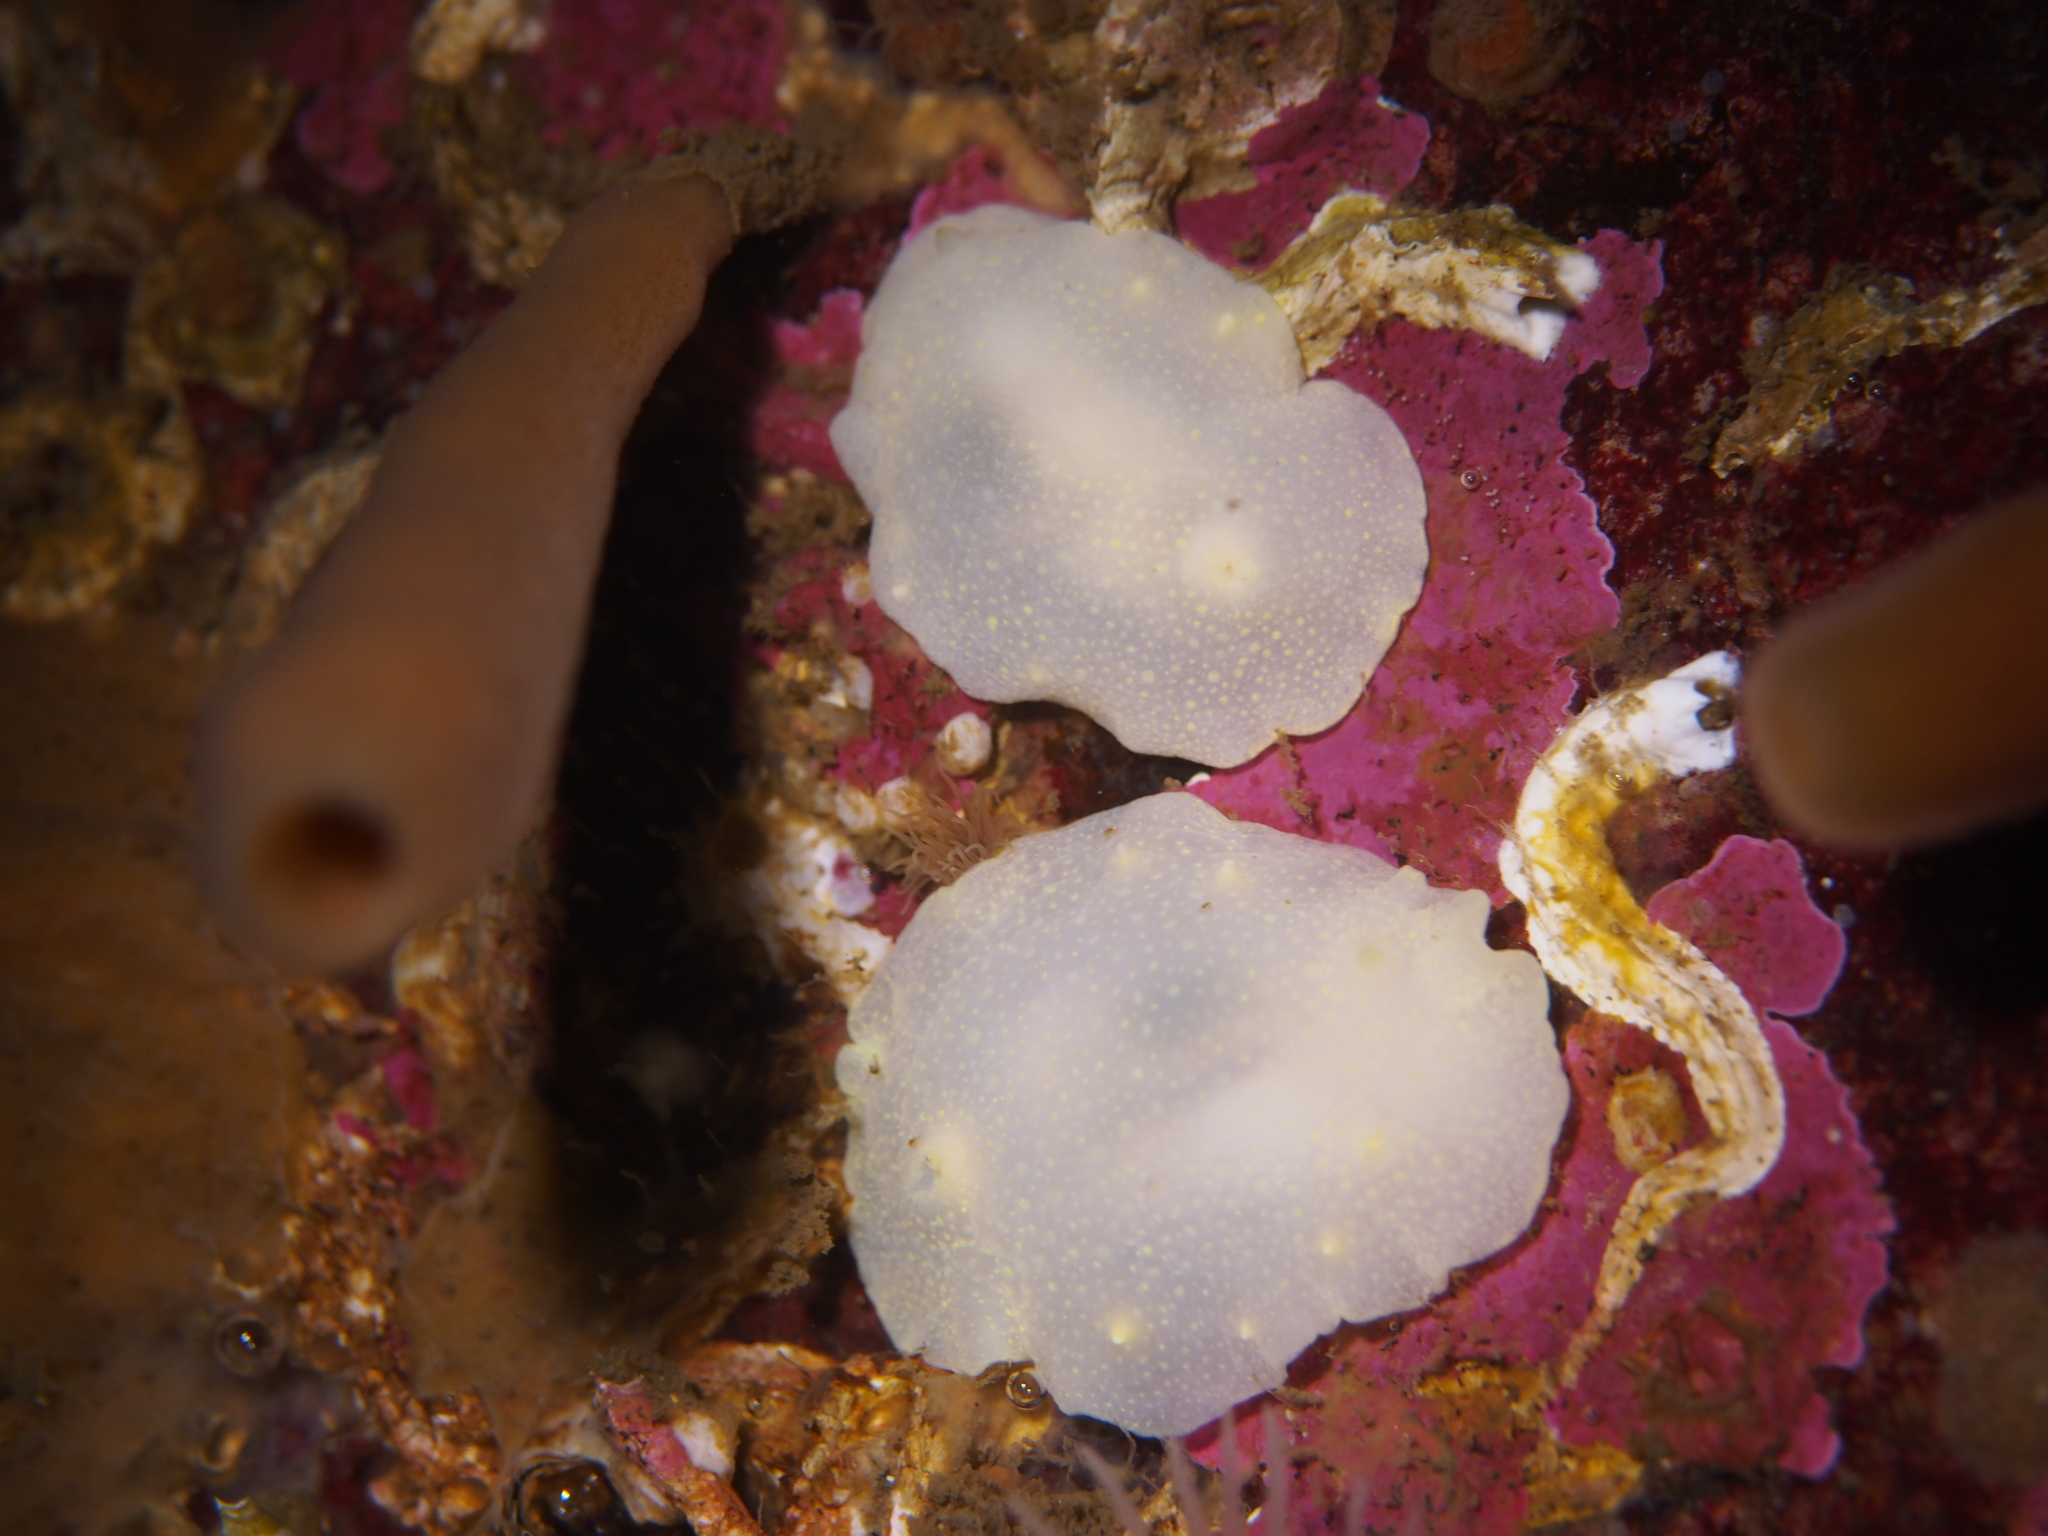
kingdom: Animalia
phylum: Mollusca
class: Gastropoda
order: Nudibranchia
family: Cadlinidae
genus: Cadlina
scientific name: Cadlina laevis
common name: White atlantic cadlina
